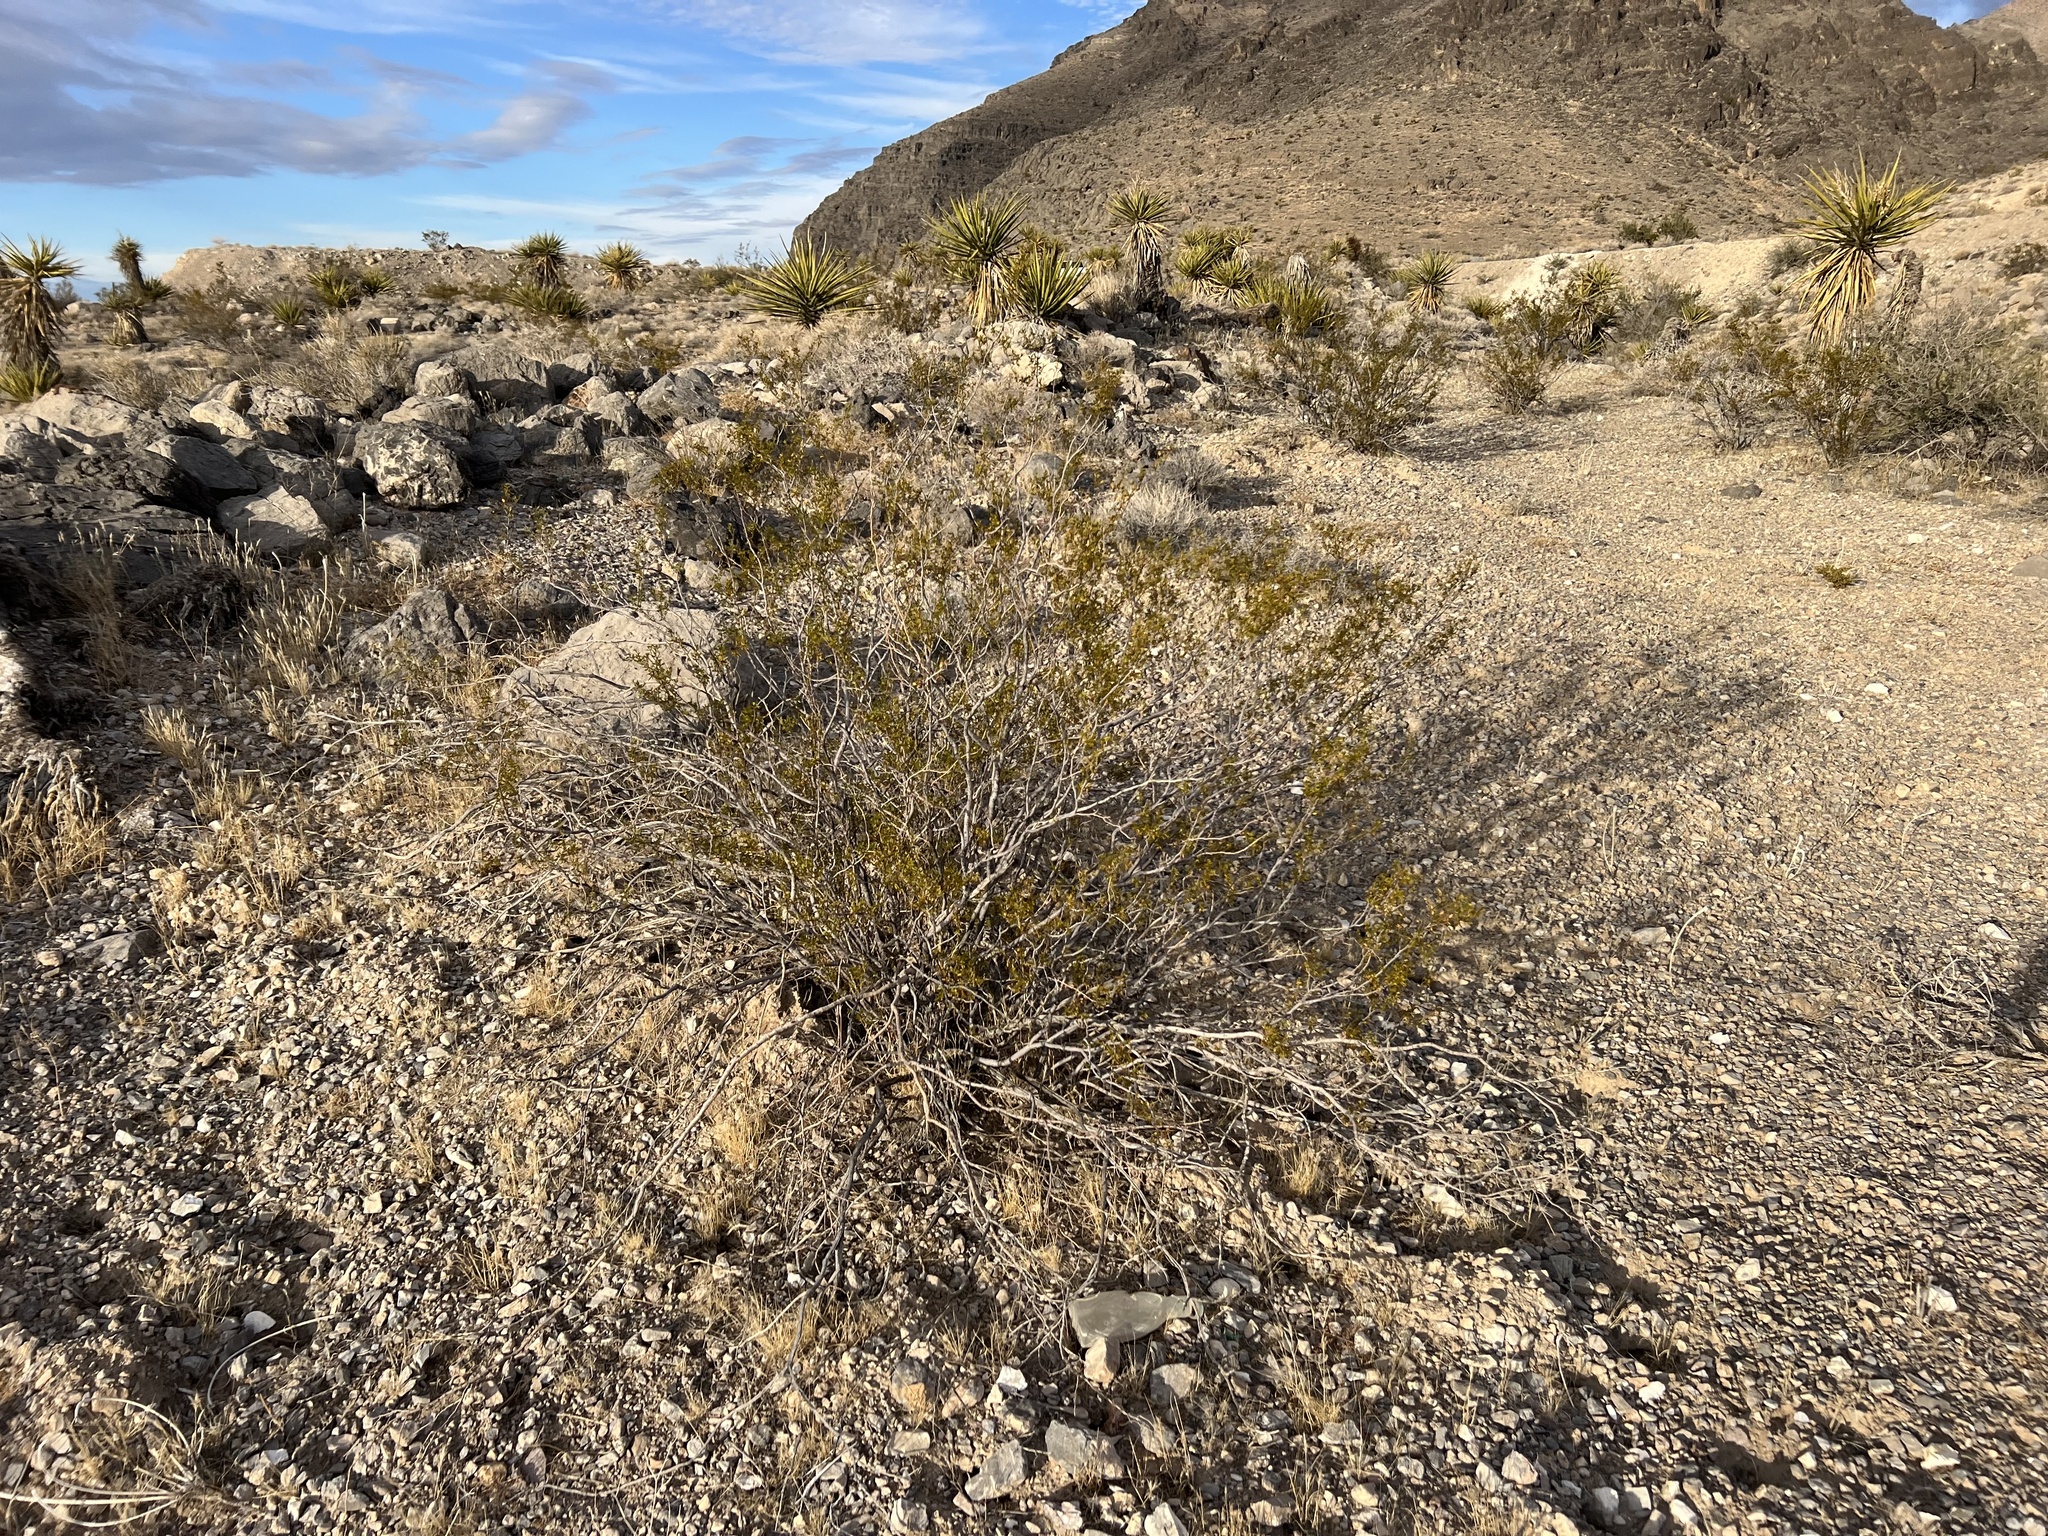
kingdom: Plantae
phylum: Tracheophyta
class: Magnoliopsida
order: Zygophyllales
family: Zygophyllaceae
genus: Larrea
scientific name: Larrea tridentata
